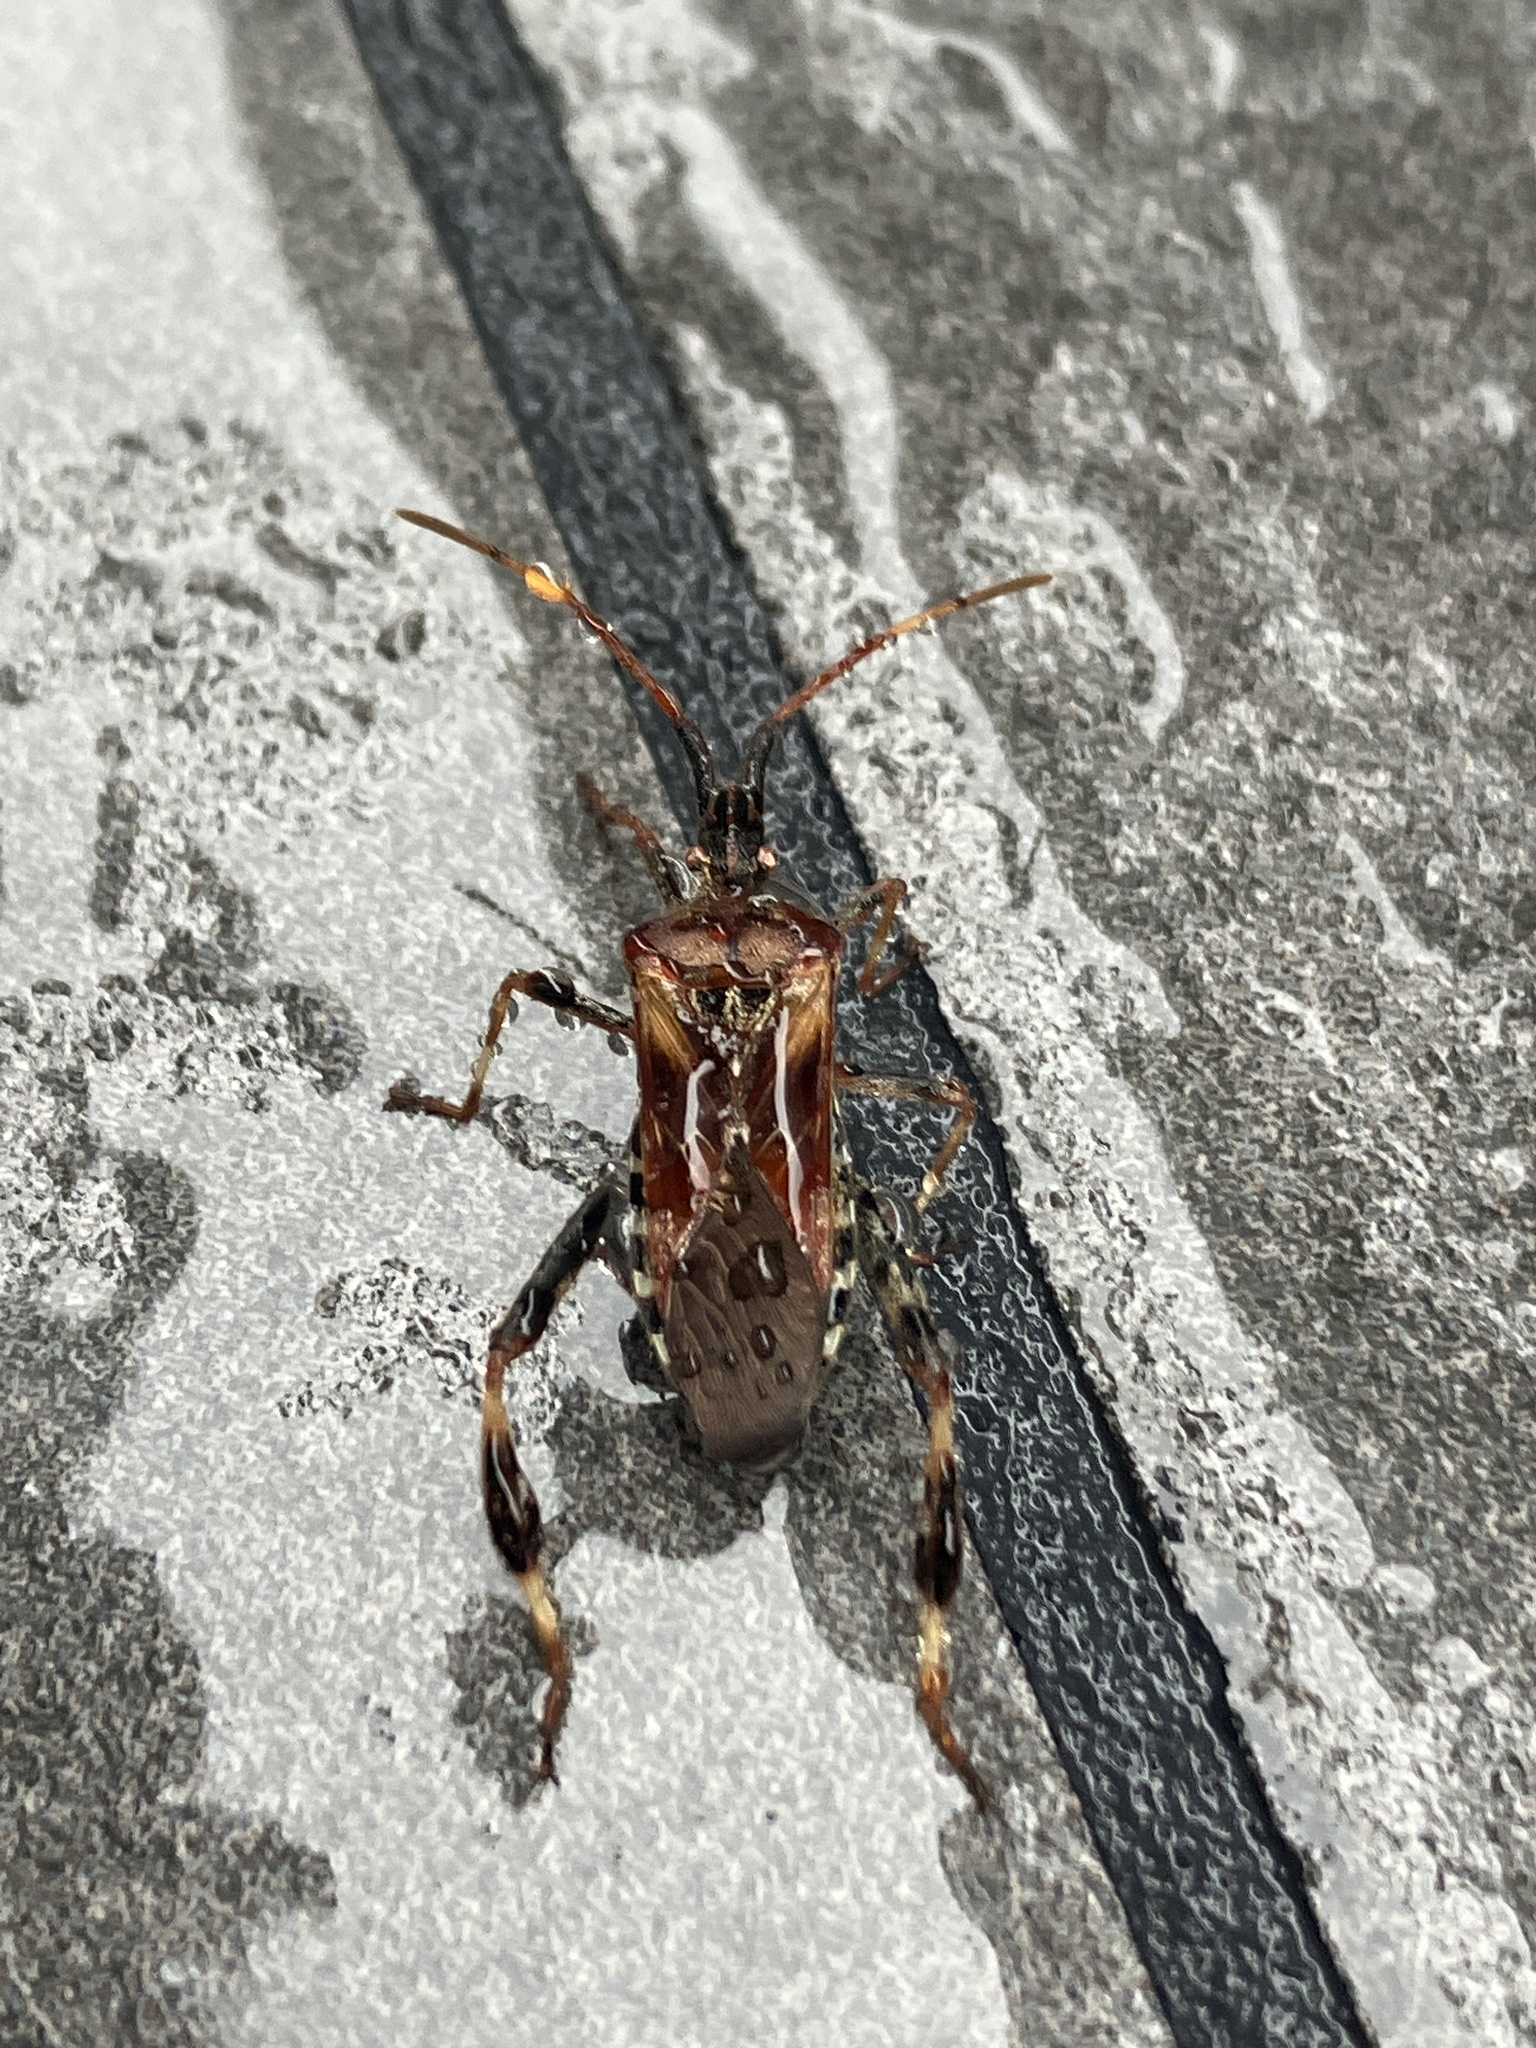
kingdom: Animalia
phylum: Arthropoda
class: Insecta
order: Hemiptera
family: Coreidae
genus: Leptoglossus
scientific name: Leptoglossus occidentalis
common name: Western conifer-seed bug
